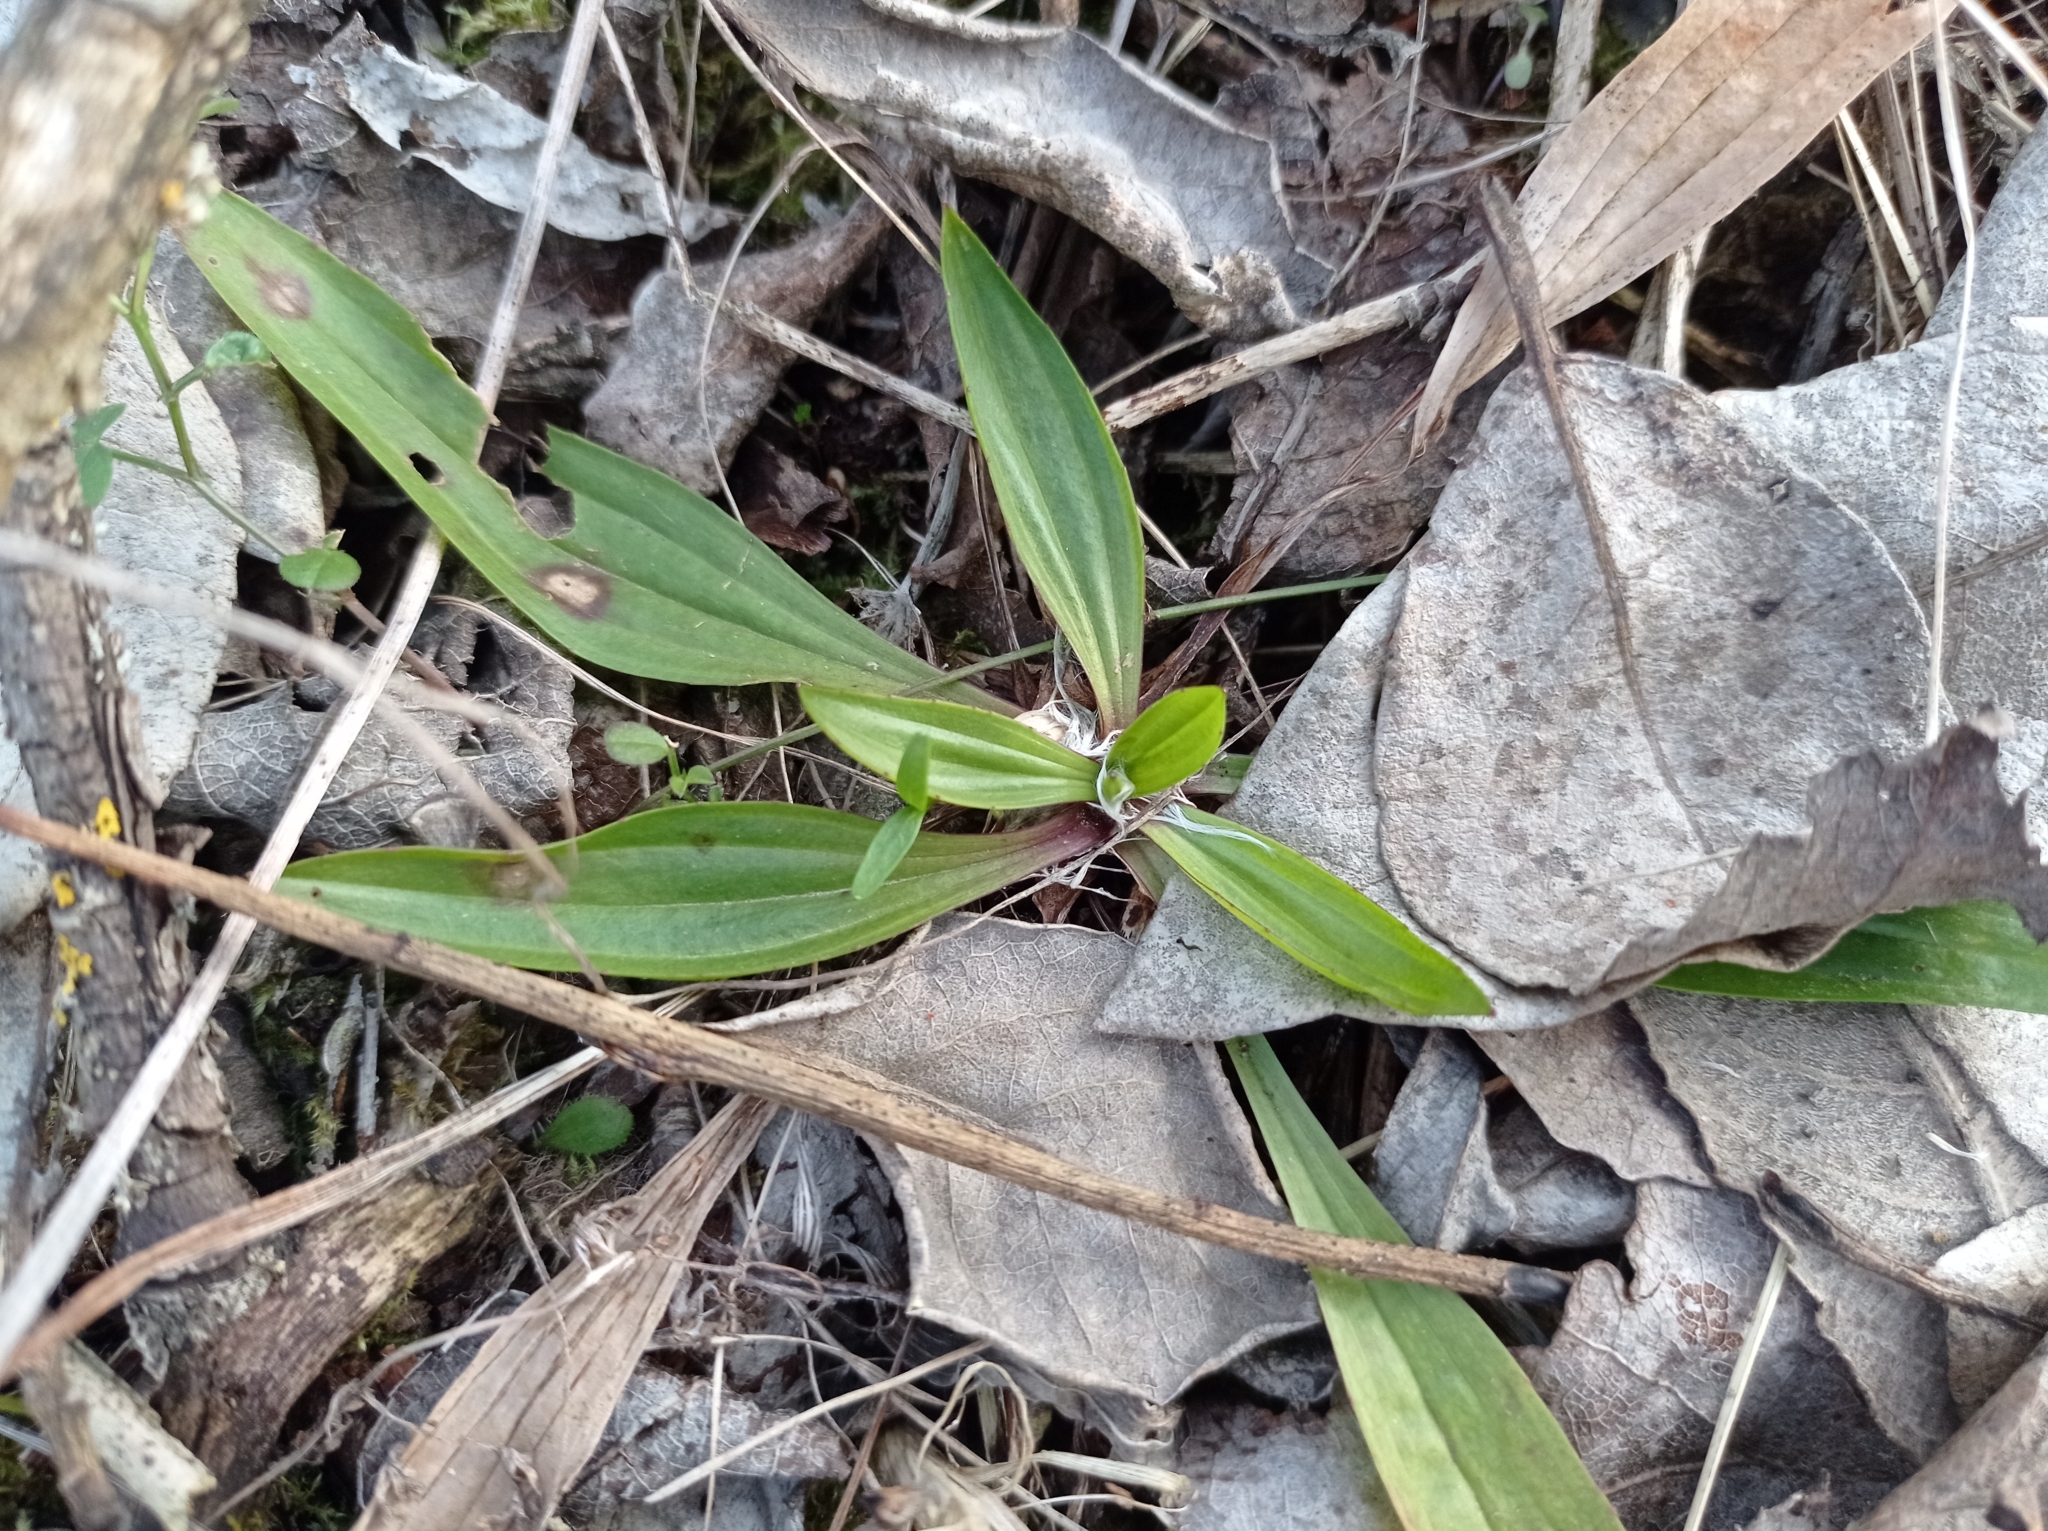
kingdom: Plantae
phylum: Tracheophyta
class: Magnoliopsida
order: Lamiales
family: Plantaginaceae
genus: Plantago
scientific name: Plantago lanceolata
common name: Ribwort plantain
